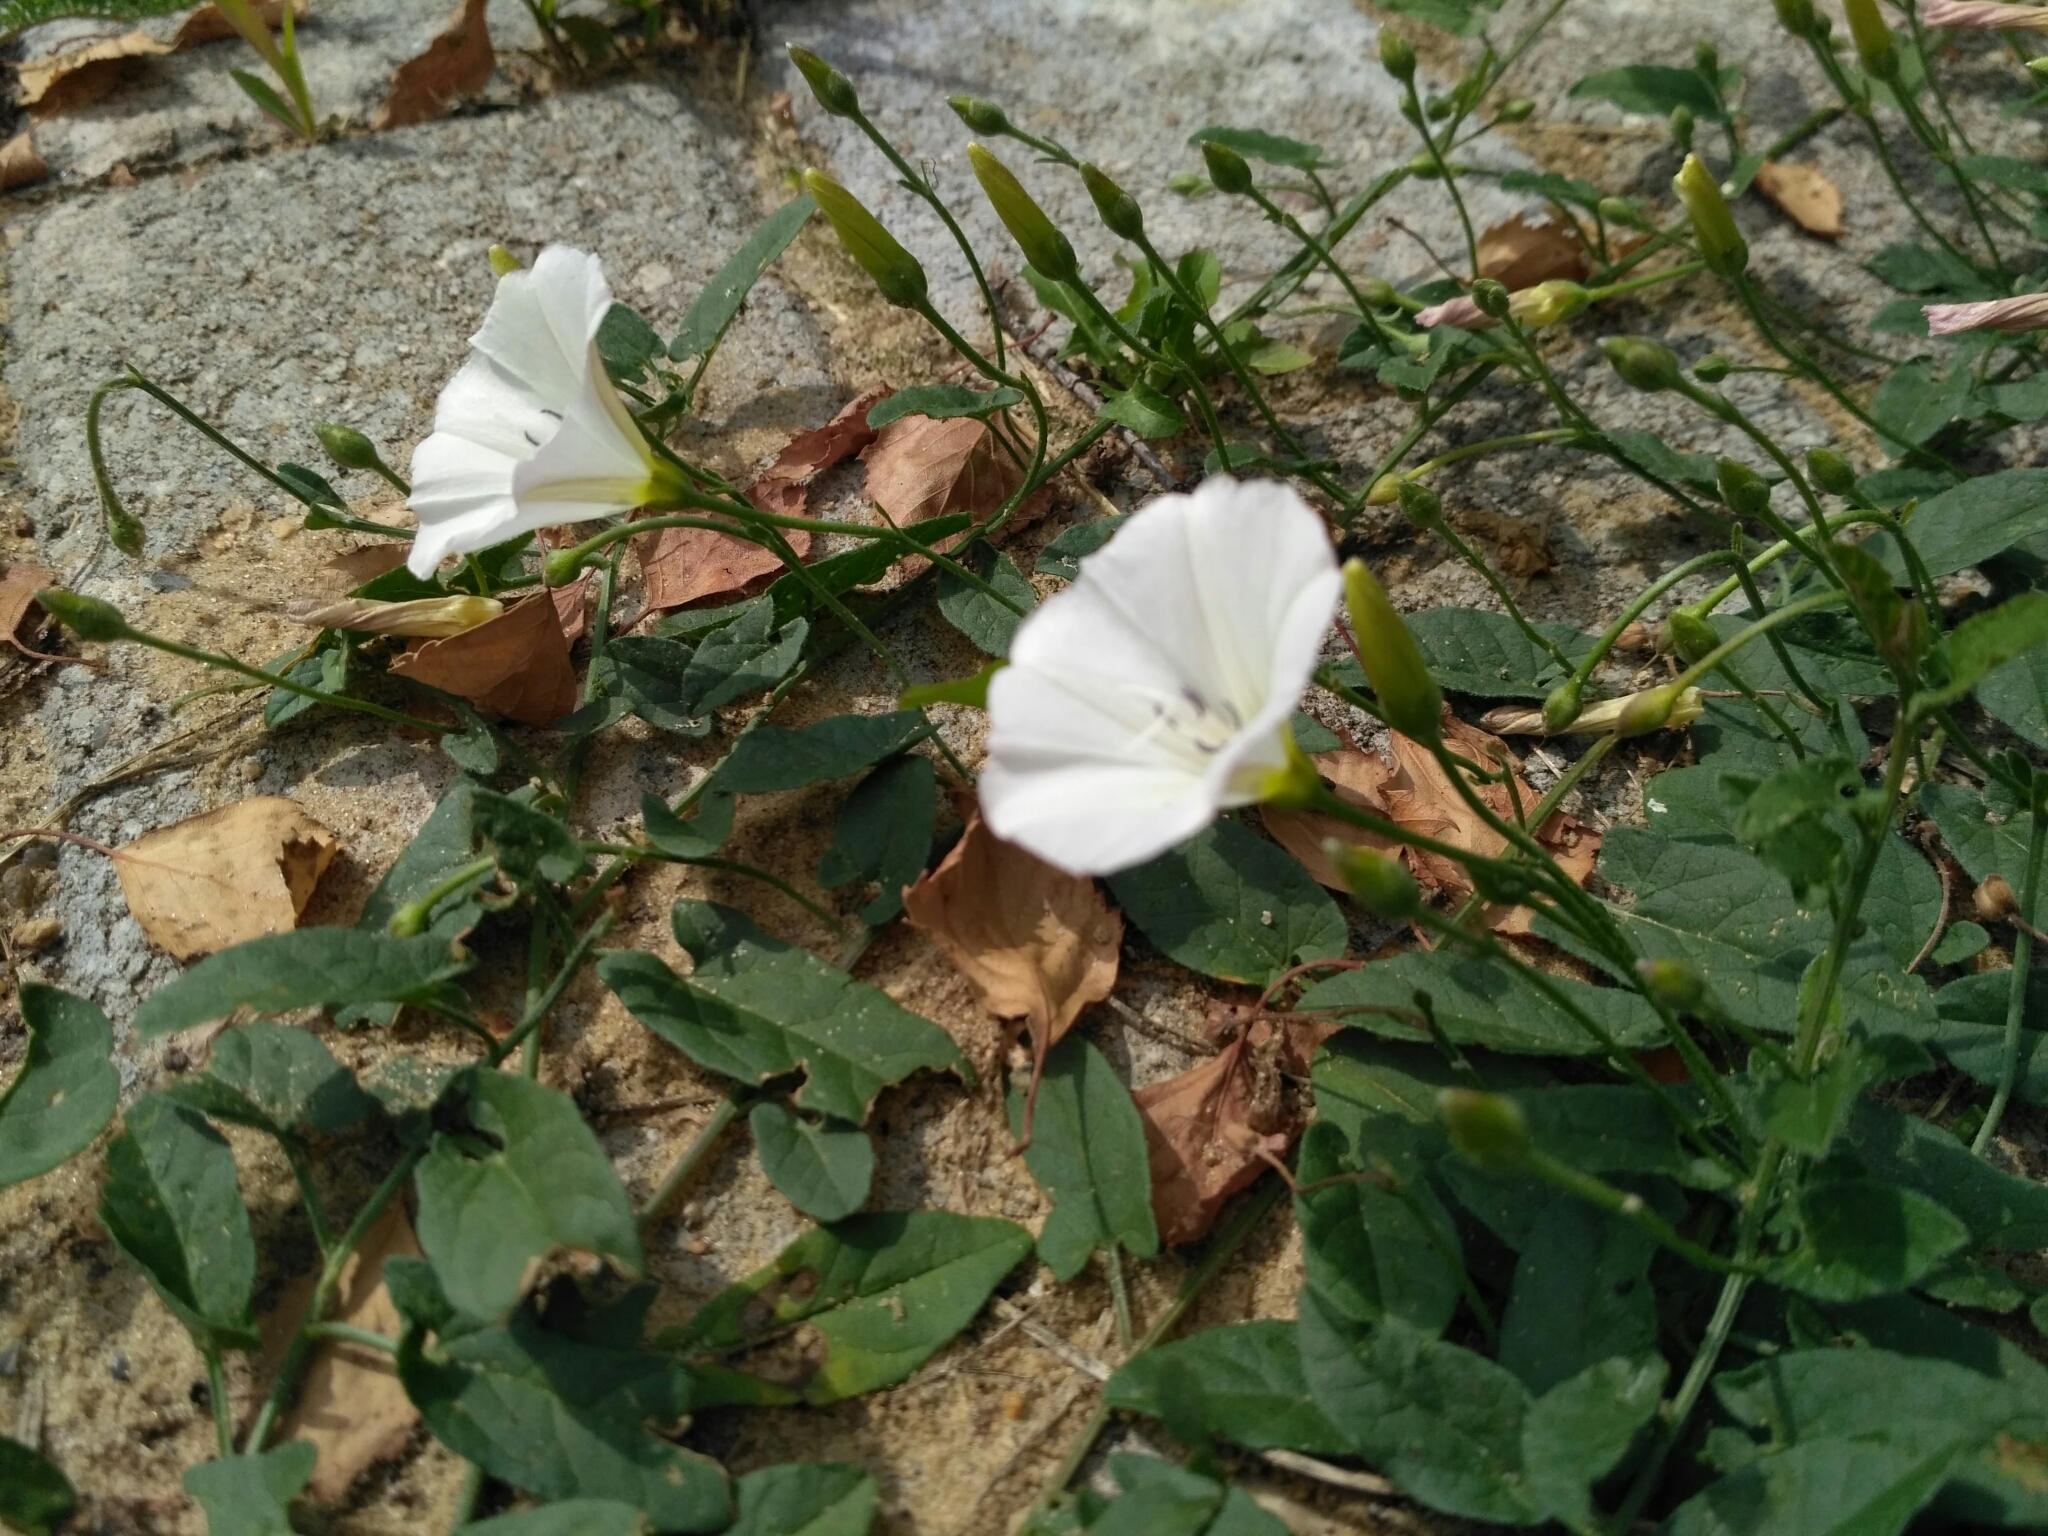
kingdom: Plantae
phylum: Tracheophyta
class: Magnoliopsida
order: Solanales
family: Convolvulaceae
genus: Convolvulus
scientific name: Convolvulus arvensis
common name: Field bindweed
